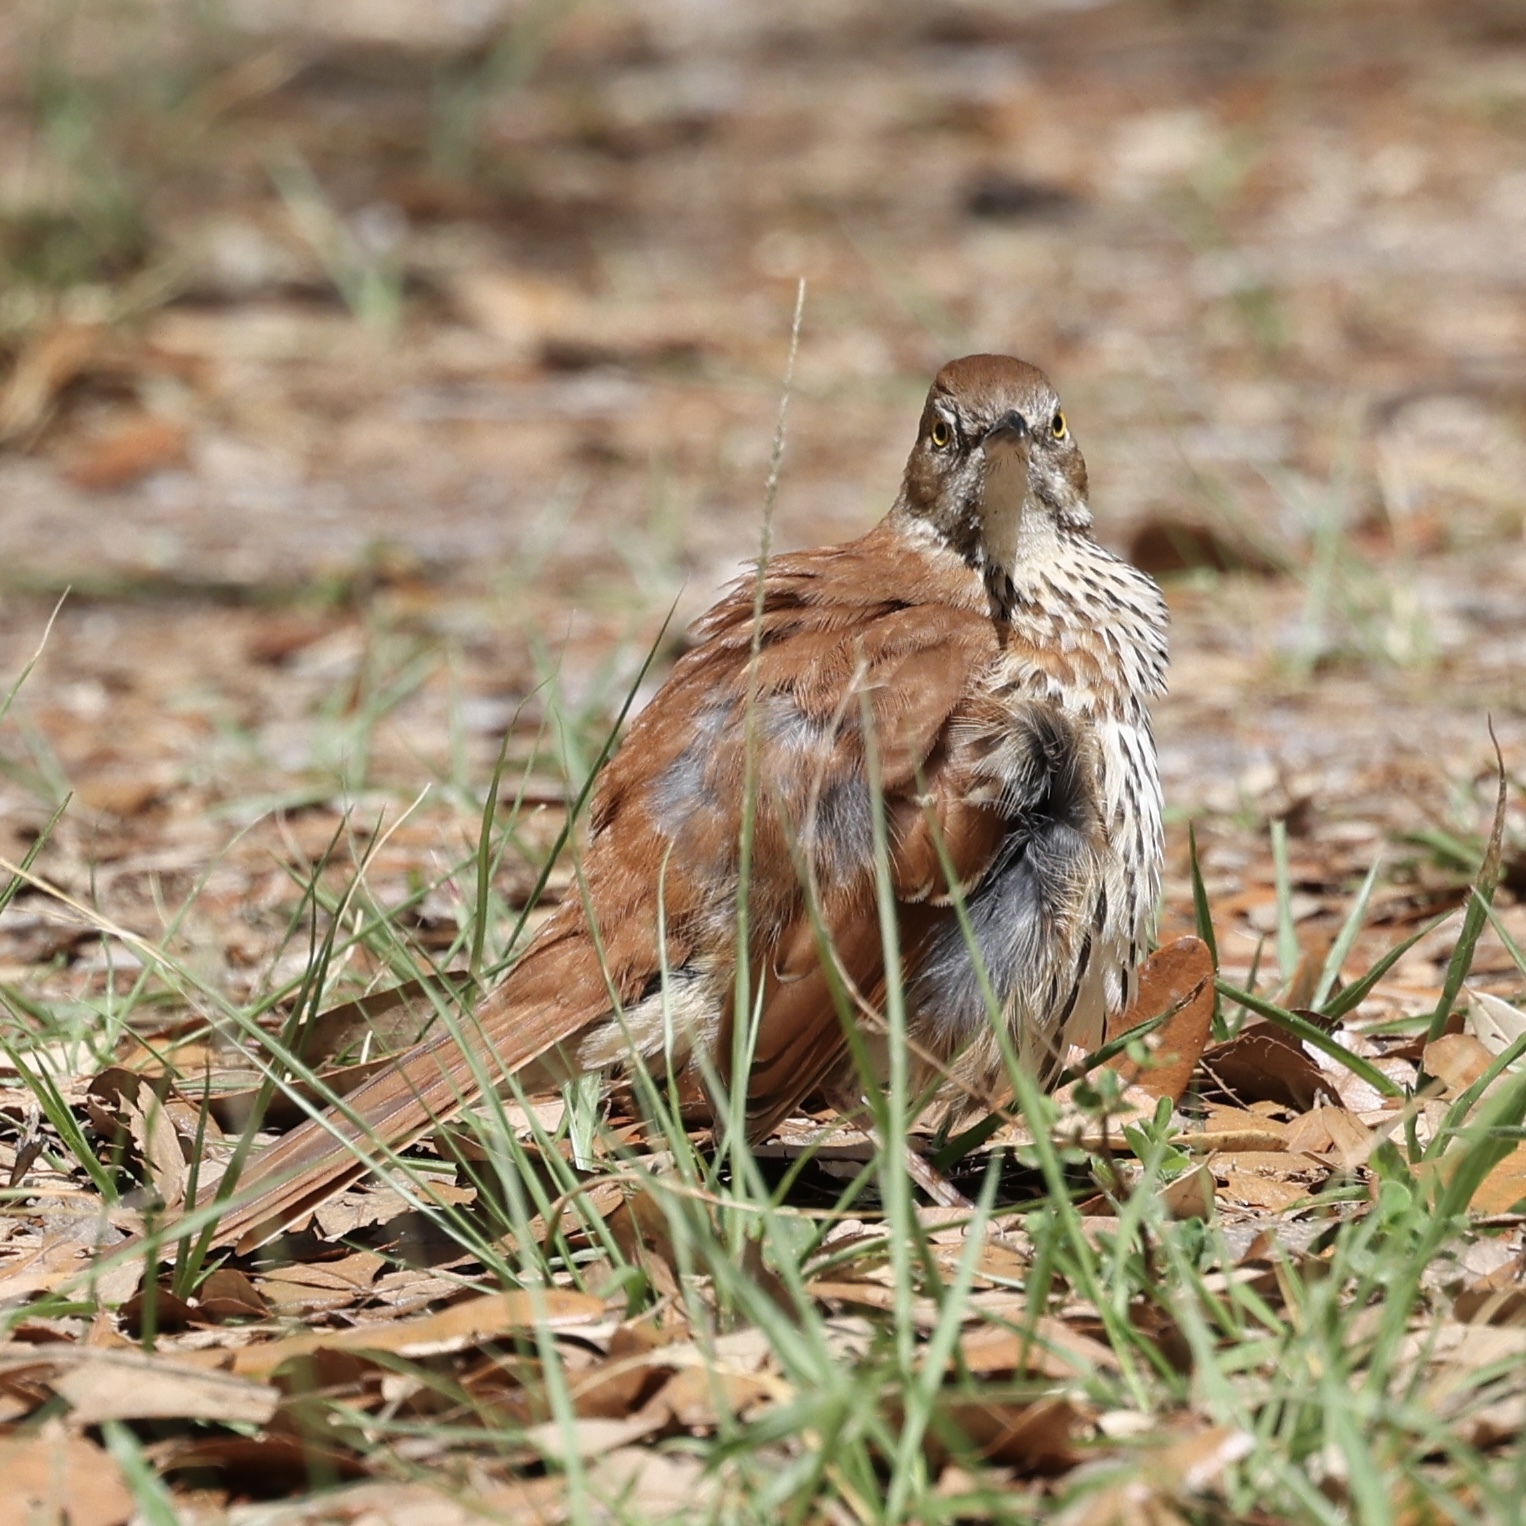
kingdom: Animalia
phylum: Chordata
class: Aves
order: Passeriformes
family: Mimidae
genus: Toxostoma
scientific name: Toxostoma rufum
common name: Brown thrasher
